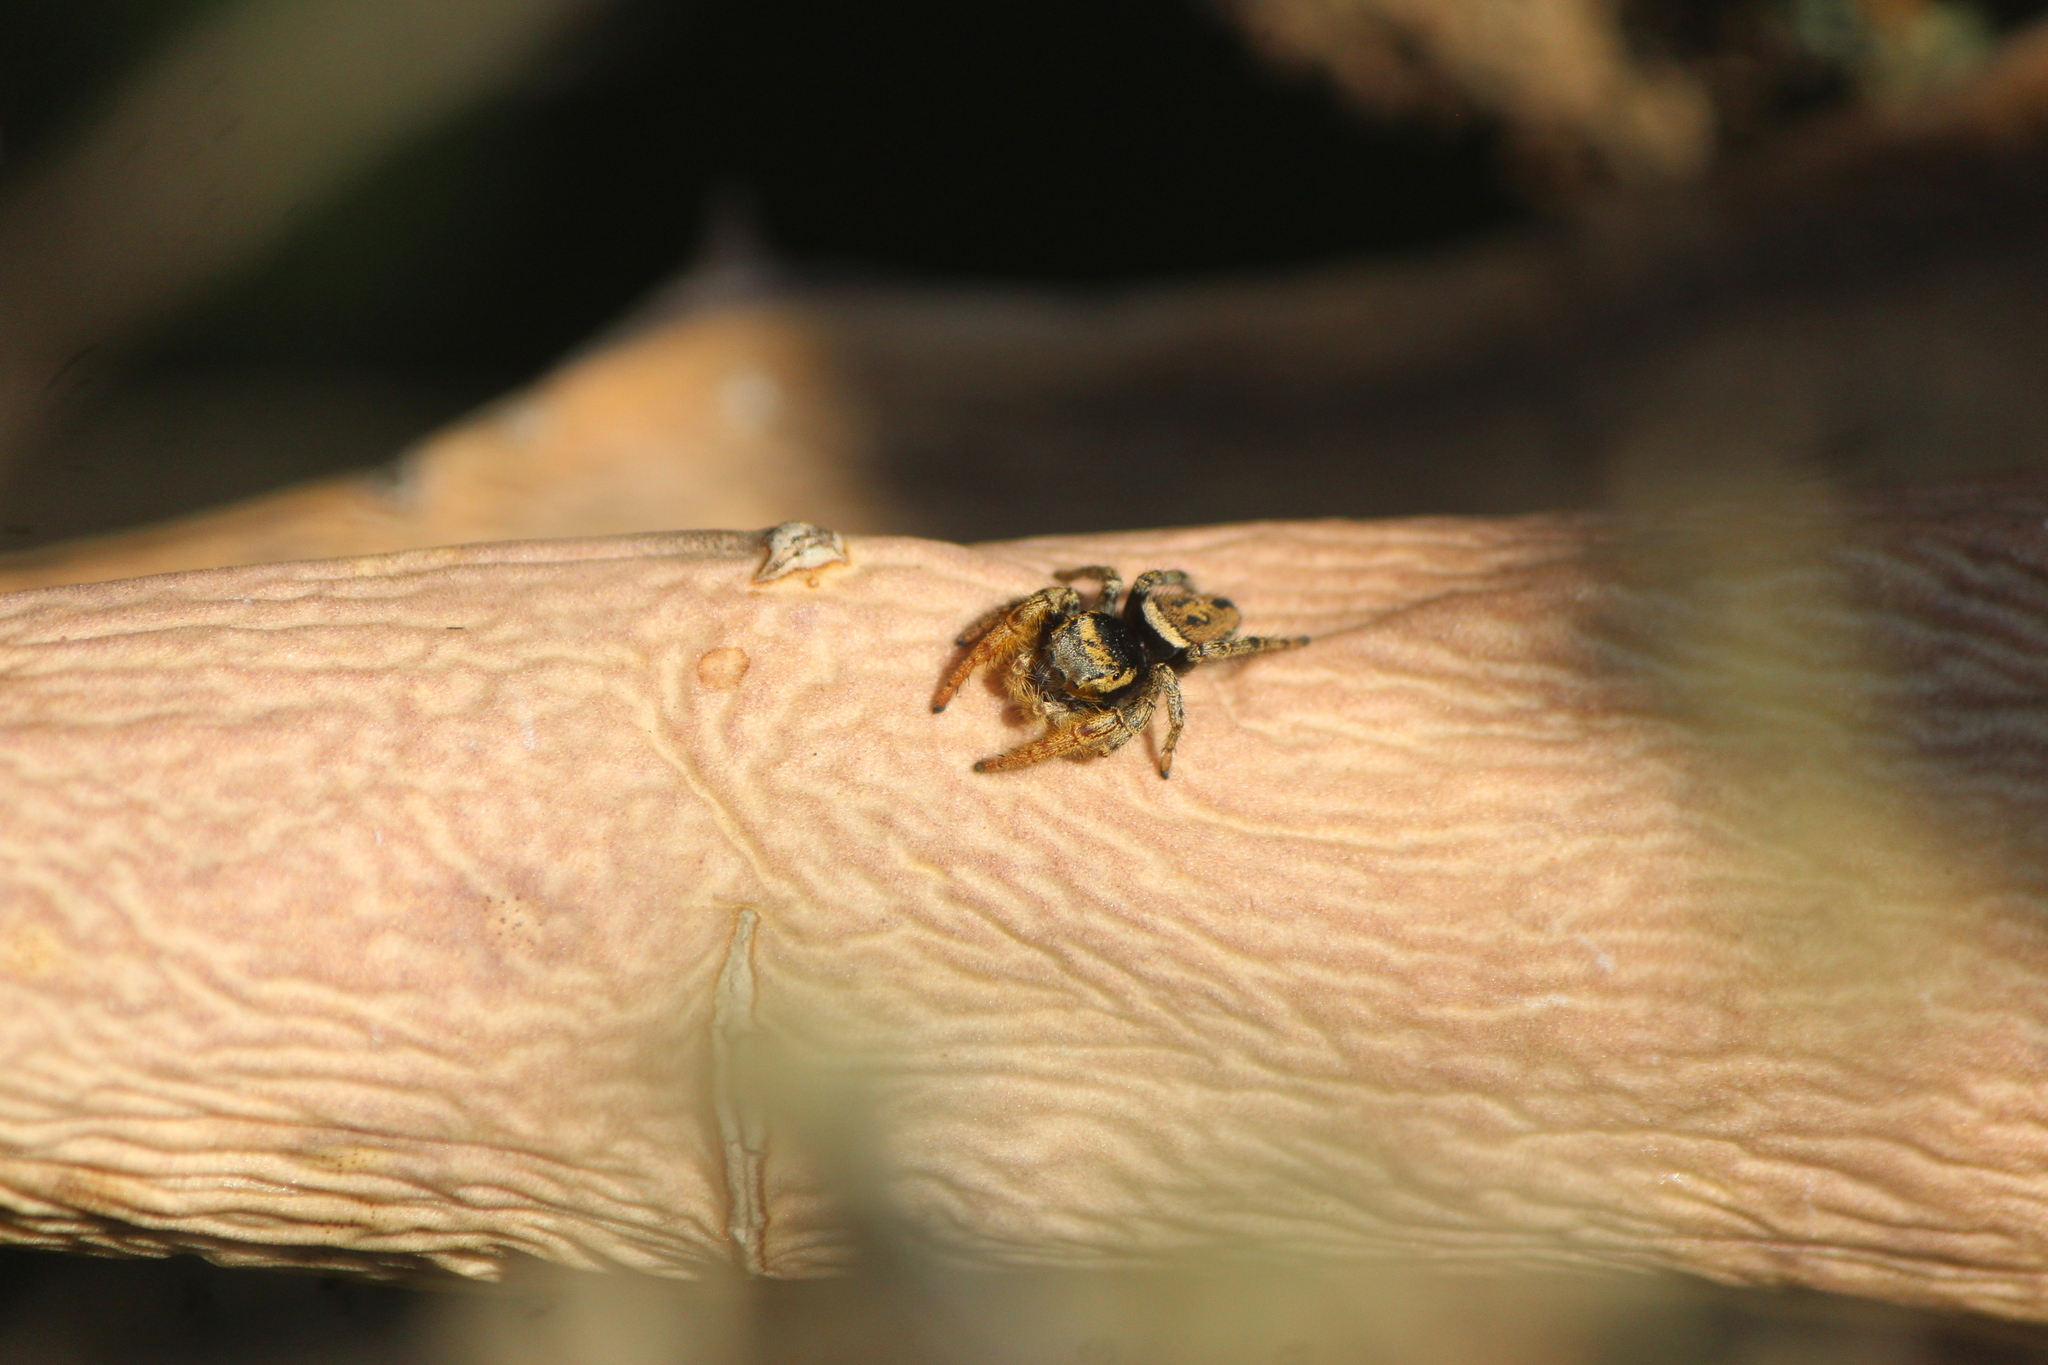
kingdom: Animalia
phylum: Arthropoda
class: Arachnida
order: Araneae
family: Salticidae
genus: Phidippus
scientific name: Phidippus arizonensis
